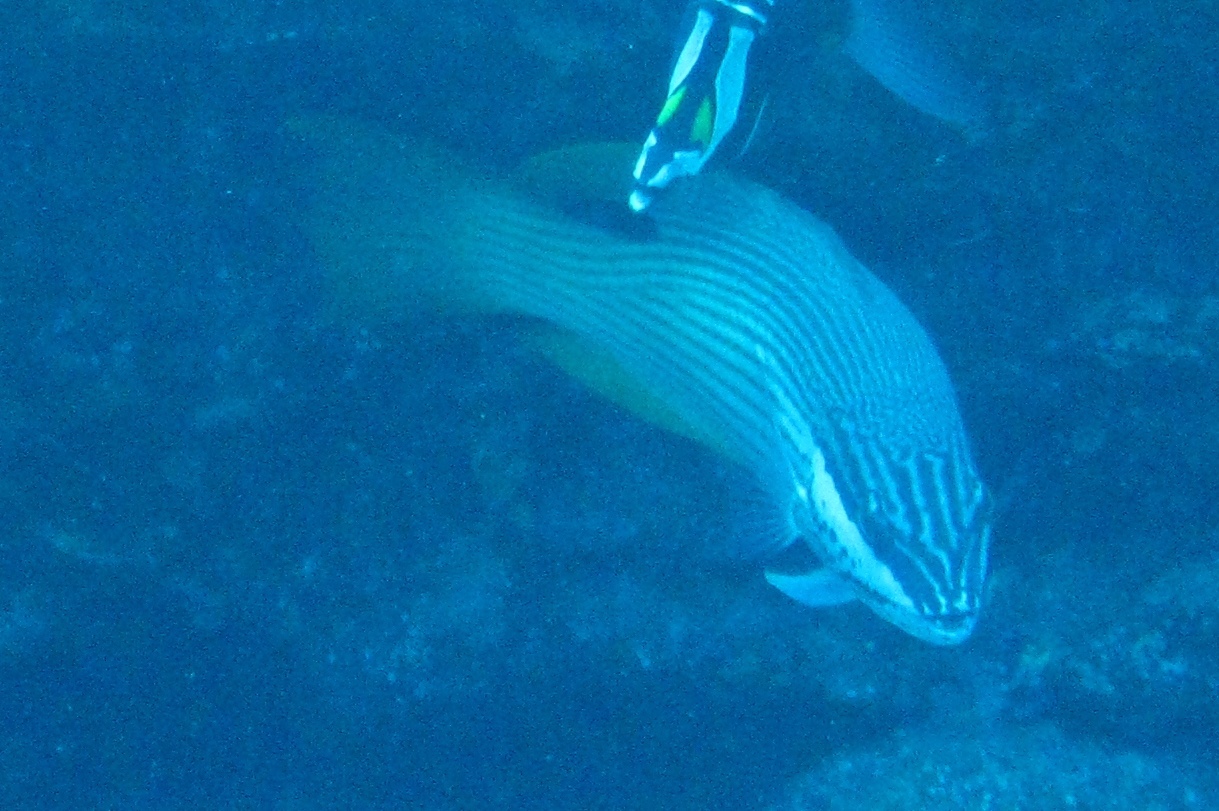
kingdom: Animalia
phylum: Chordata
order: Perciformes
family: Labridae
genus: Bodianus
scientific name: Bodianus albotaeniatus
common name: Hawaiian hogfish
